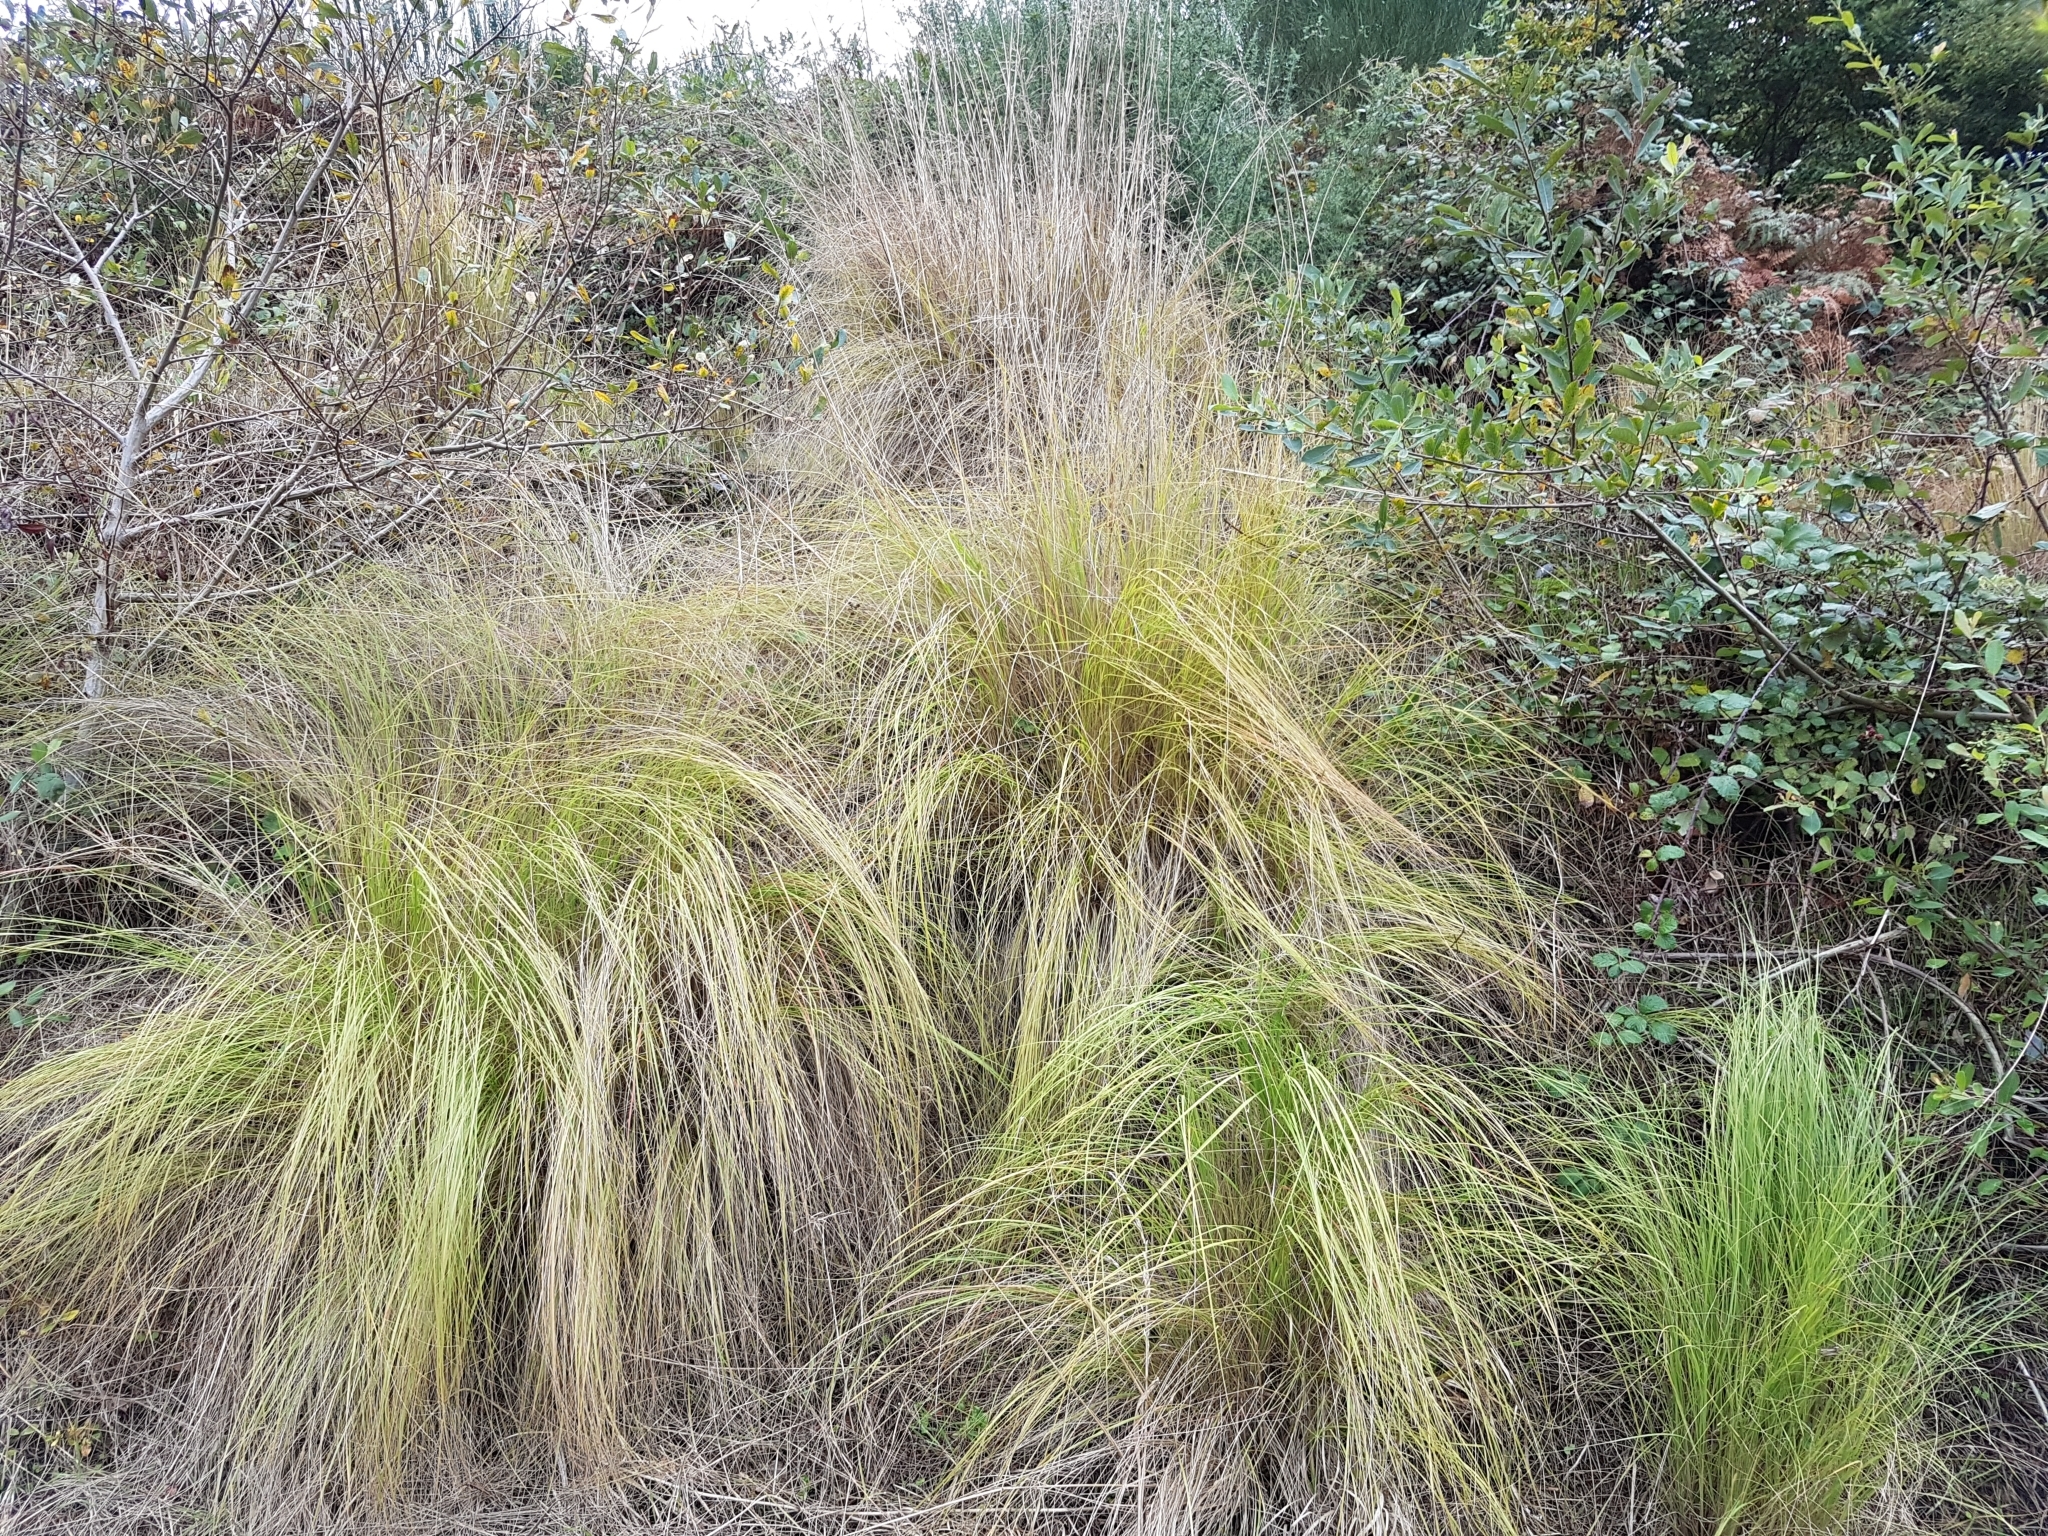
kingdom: Plantae
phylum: Tracheophyta
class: Liliopsida
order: Poales
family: Poaceae
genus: Eragrostis
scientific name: Eragrostis curvula
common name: African love-grass
